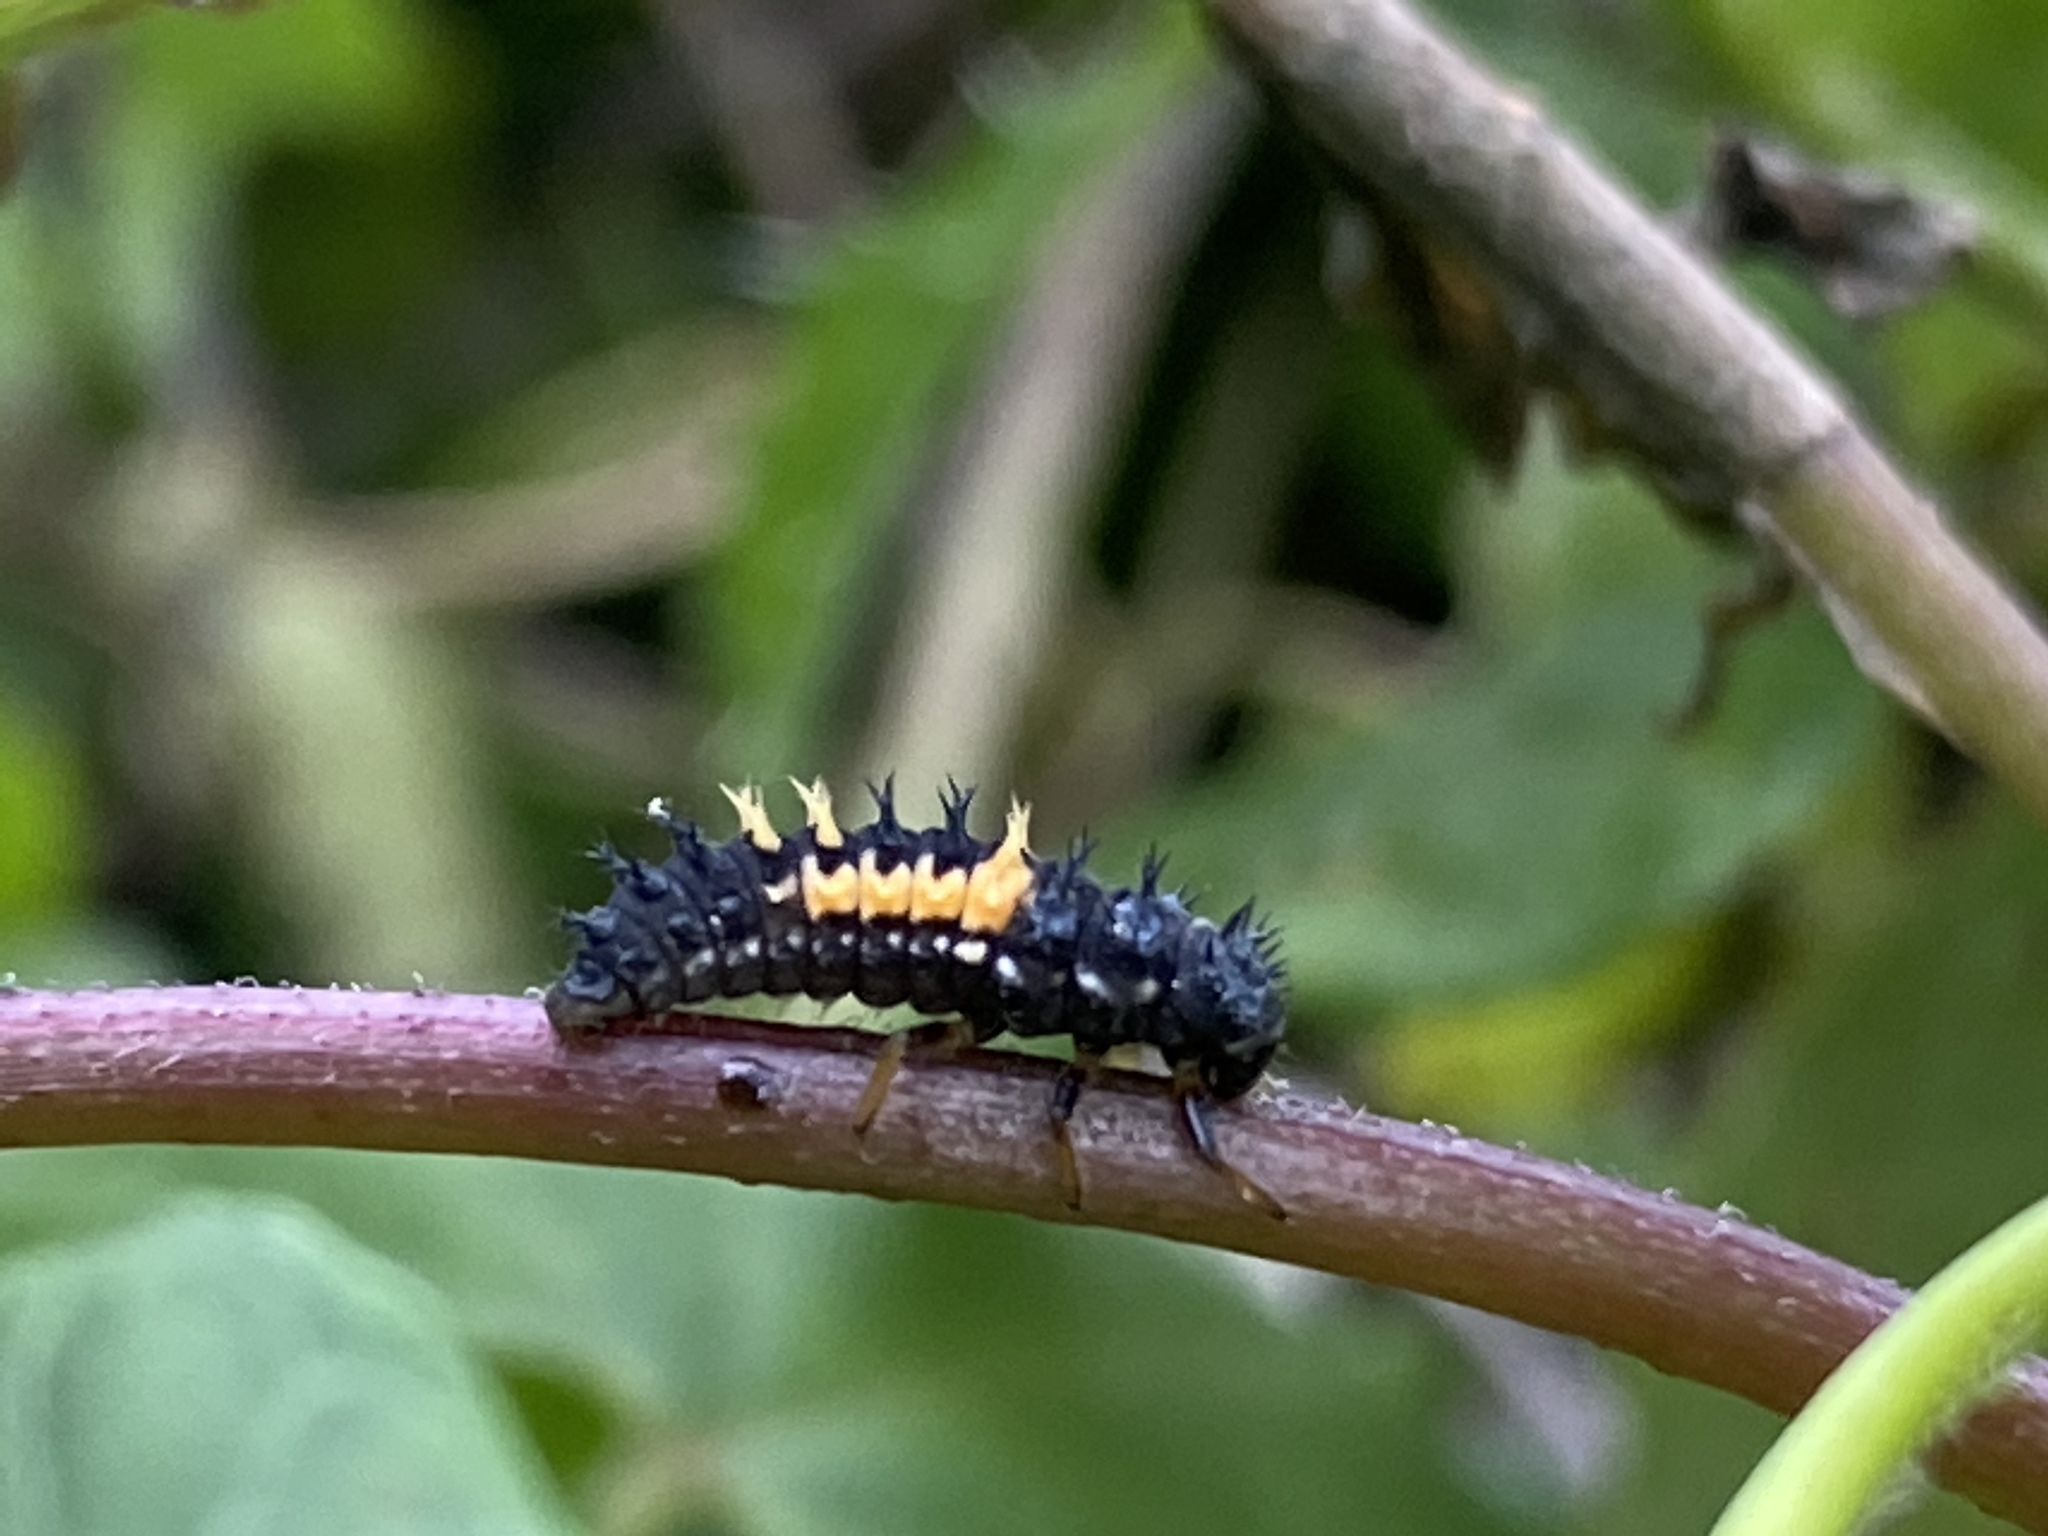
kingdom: Animalia
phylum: Arthropoda
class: Insecta
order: Coleoptera
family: Coccinellidae
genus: Harmonia
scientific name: Harmonia axyridis
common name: Harlequin ladybird
